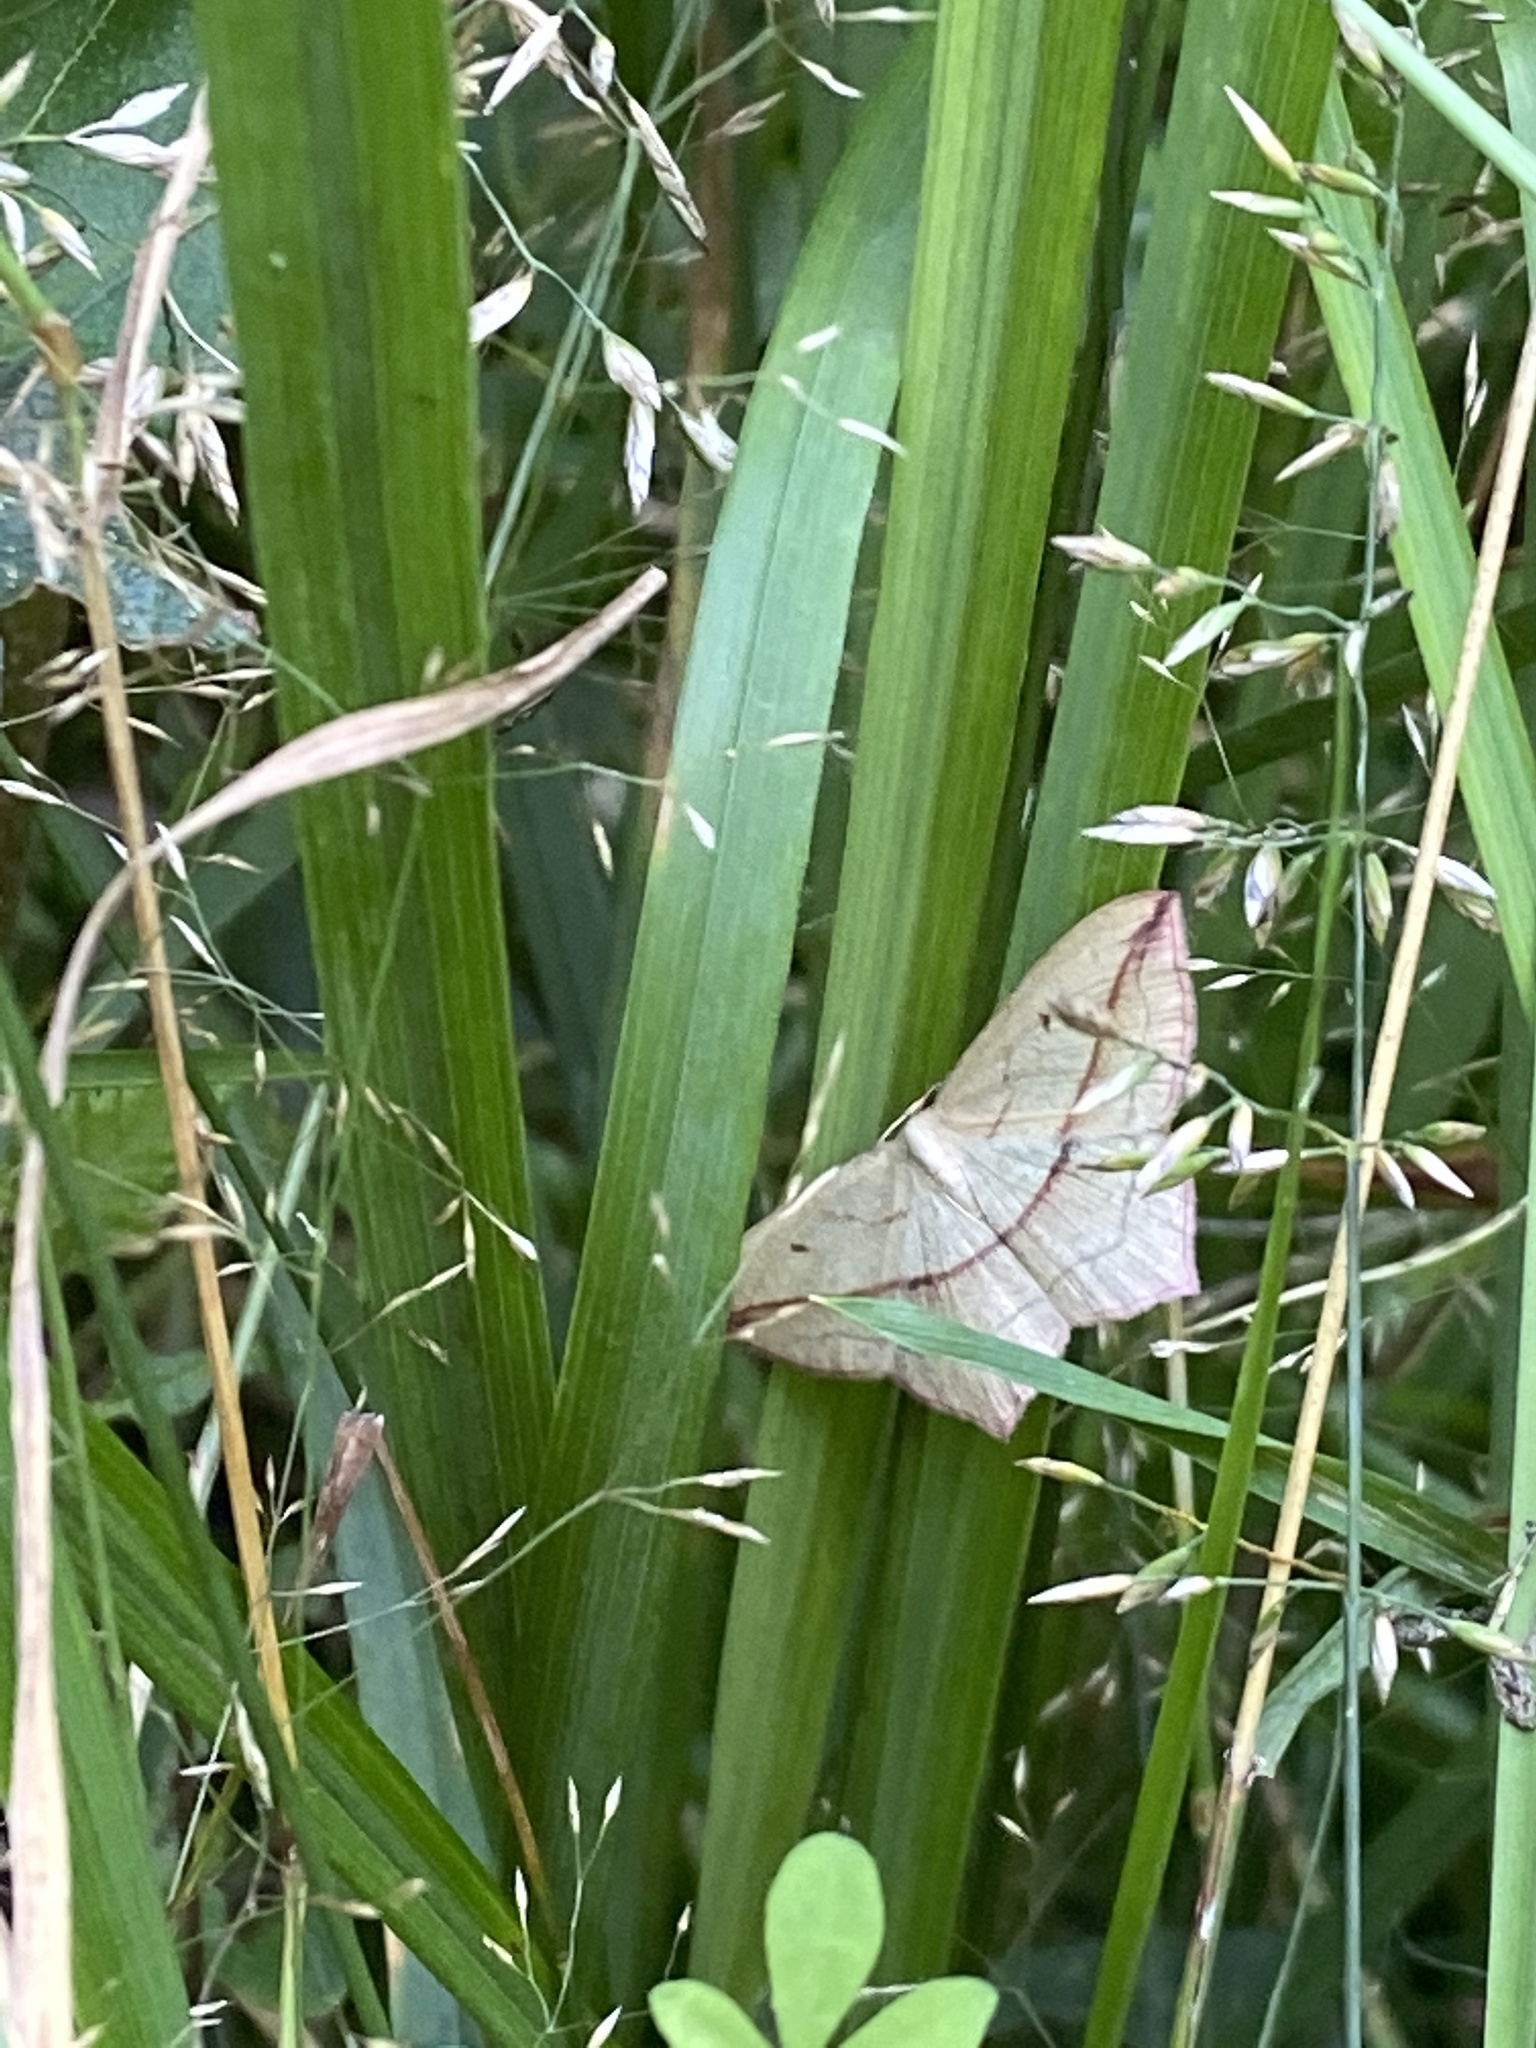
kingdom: Animalia
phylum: Arthropoda
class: Insecta
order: Lepidoptera
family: Geometridae
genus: Timandra
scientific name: Timandra comae
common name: Blood-vein
